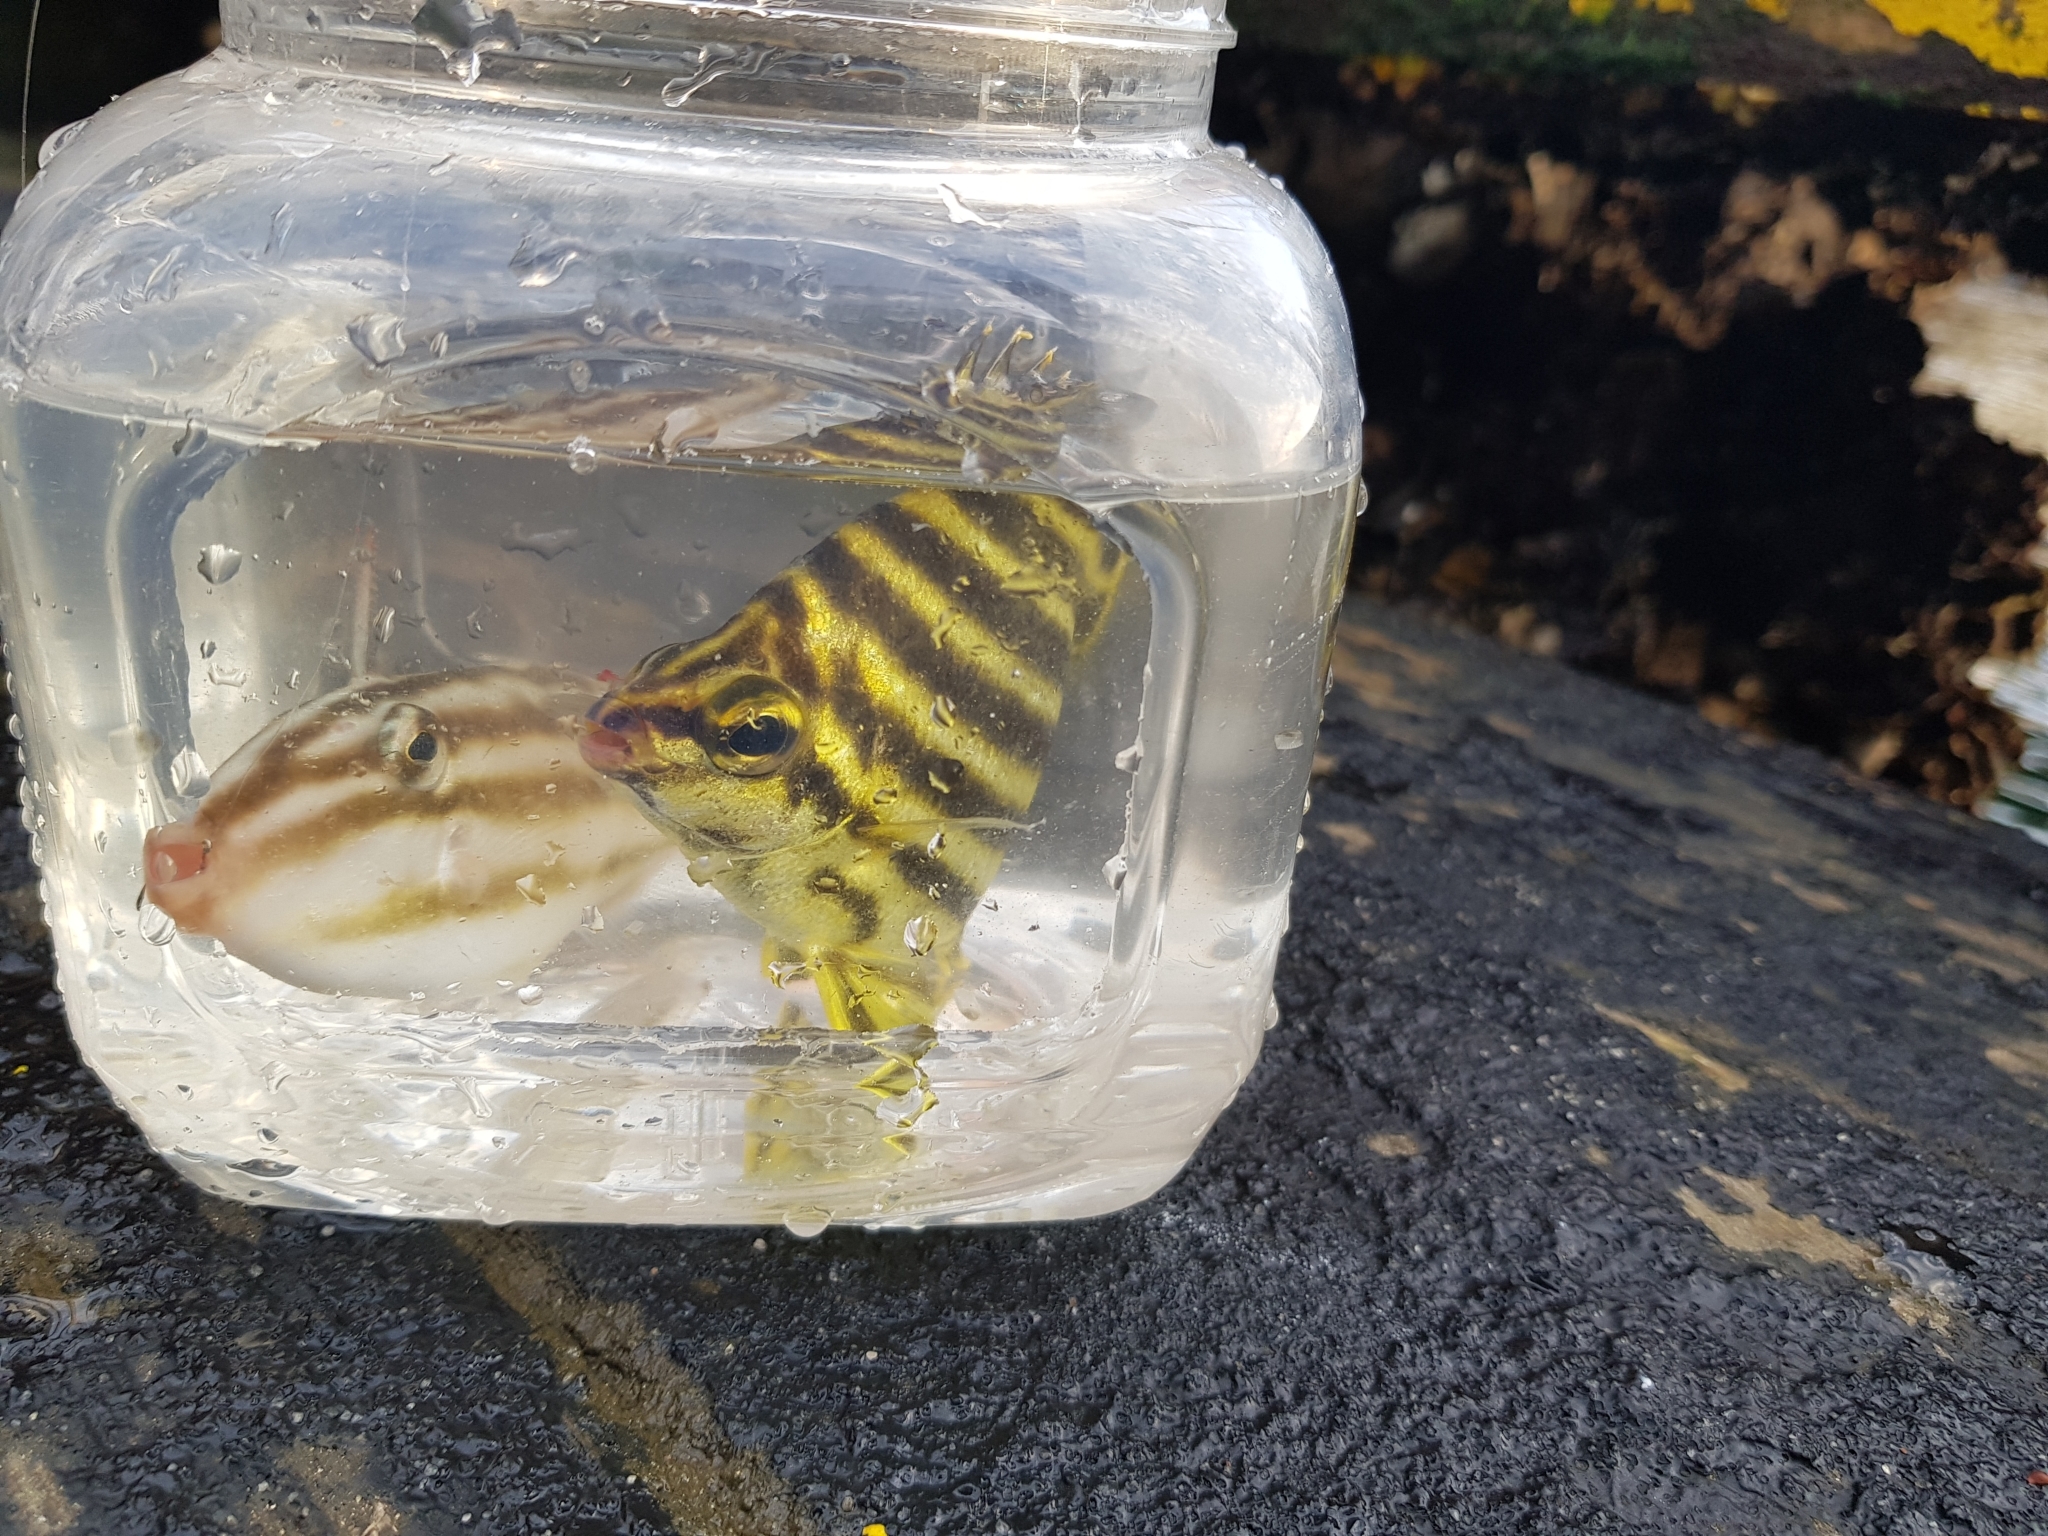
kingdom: Animalia
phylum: Chordata
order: Tetraodontiformes
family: Monacanthidae
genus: Nelusetta
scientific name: Nelusetta ayraud
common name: Chinaman leatherjacket
